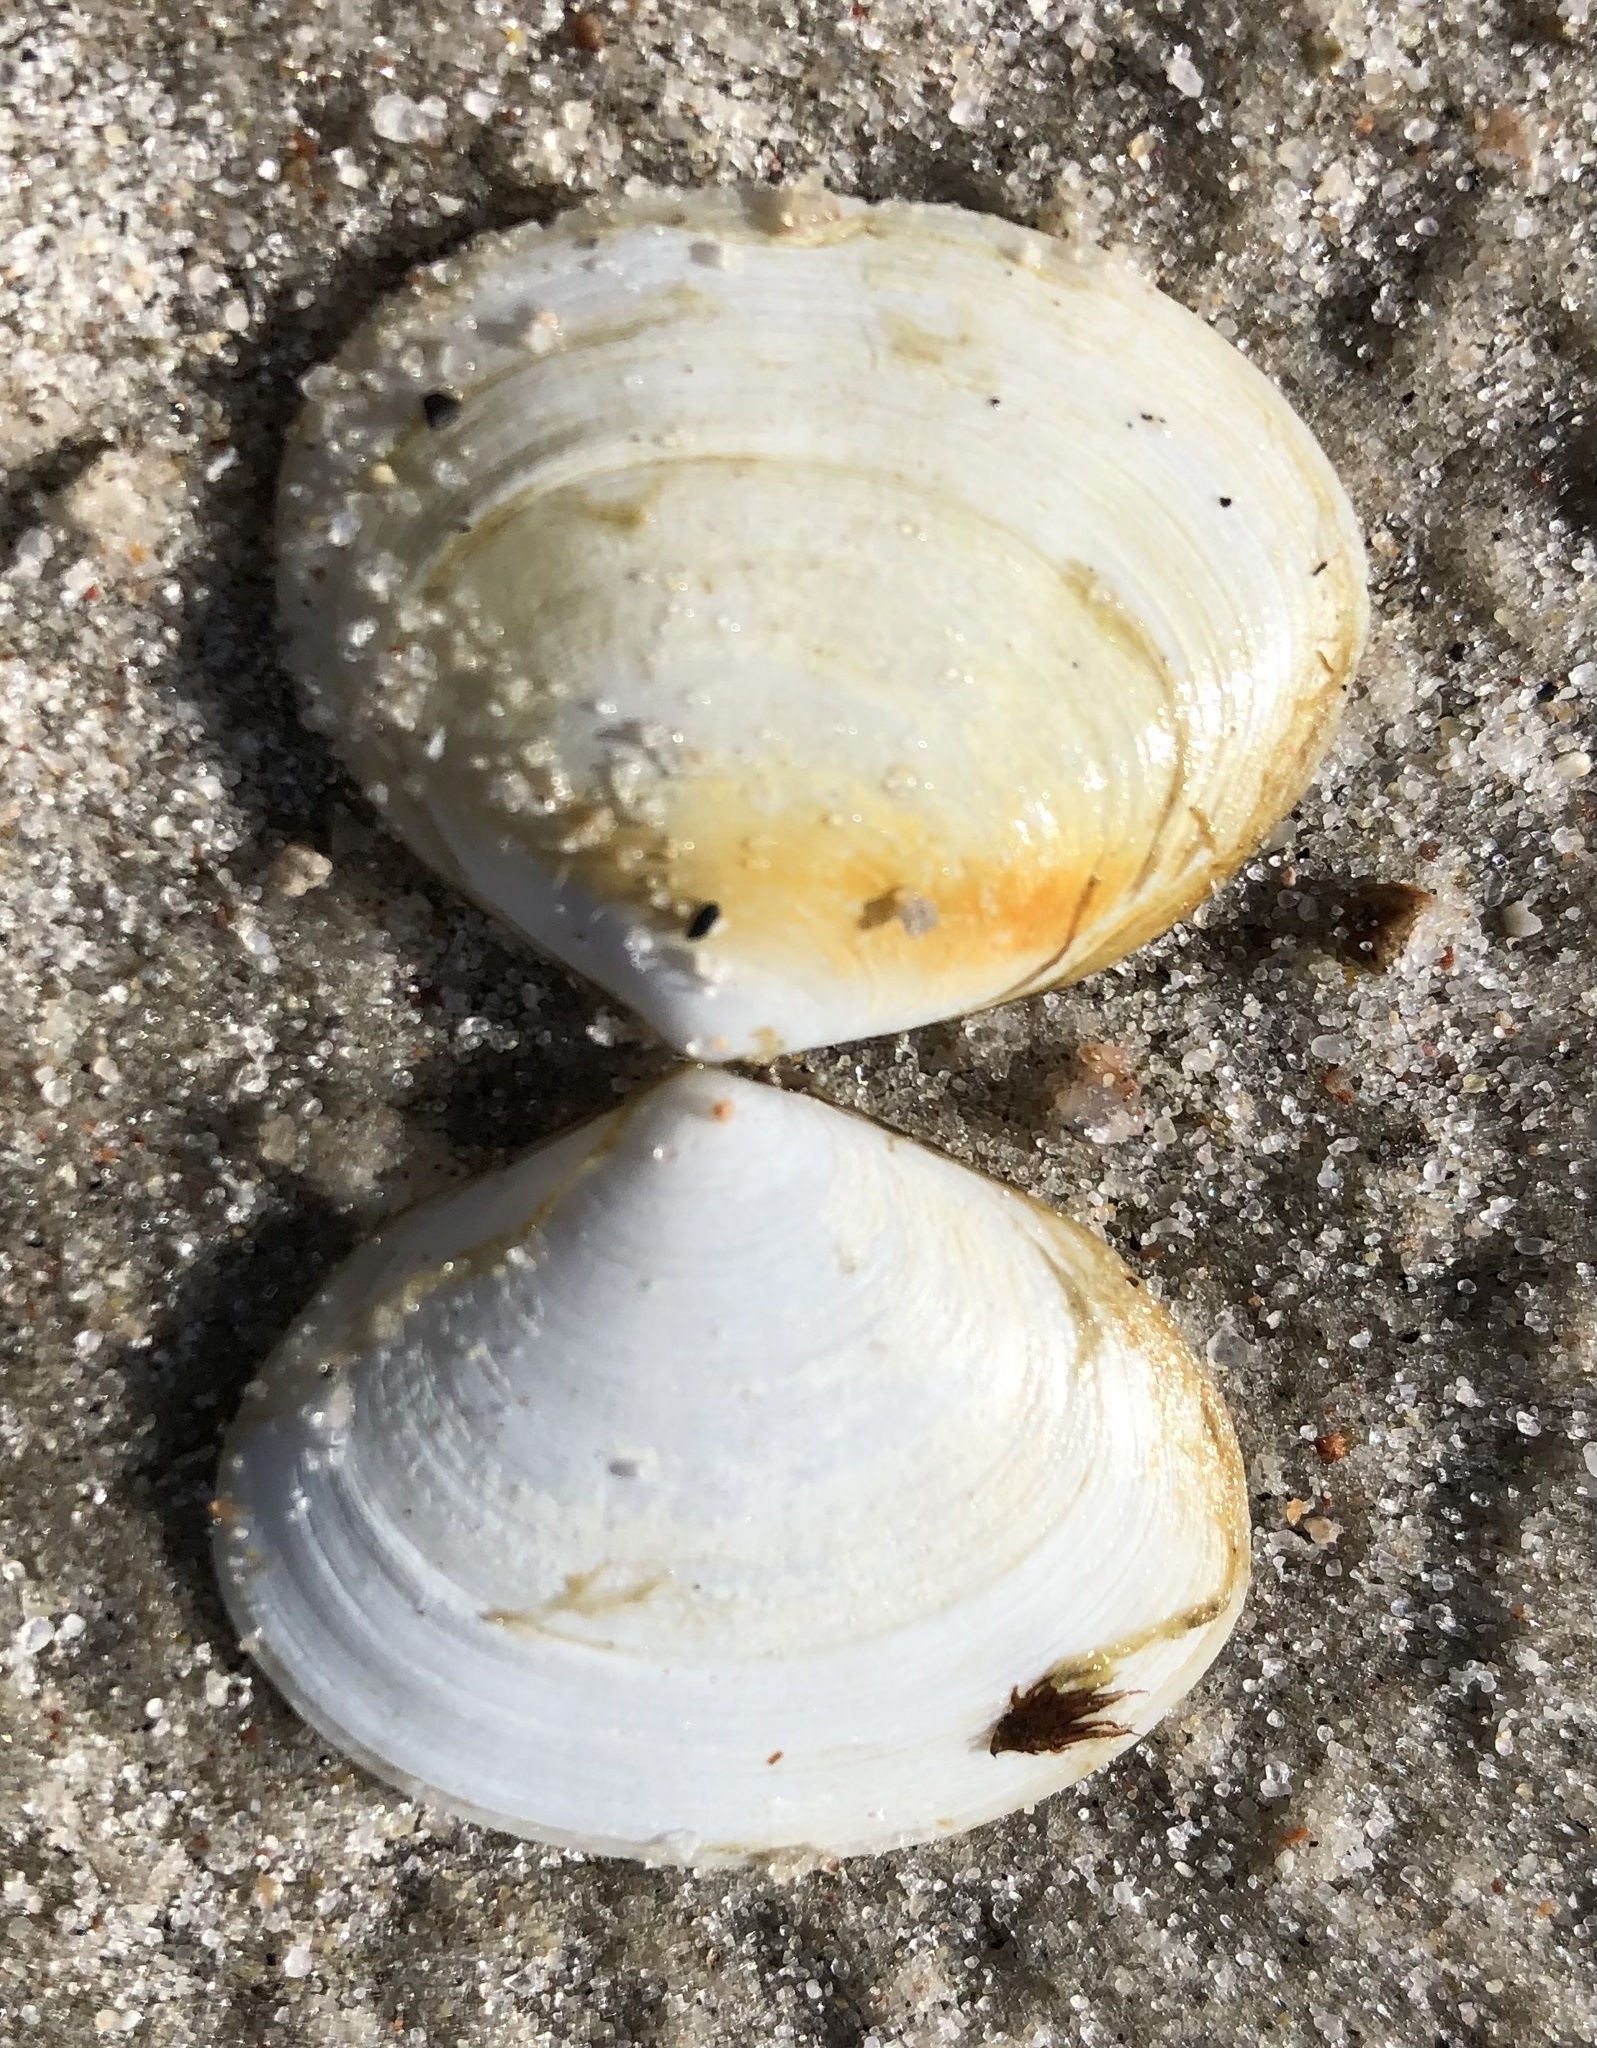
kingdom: Animalia
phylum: Mollusca
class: Bivalvia
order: Cardiida
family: Semelidae
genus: Scrobicularia
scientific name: Scrobicularia plana
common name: Peppery furrow shell
